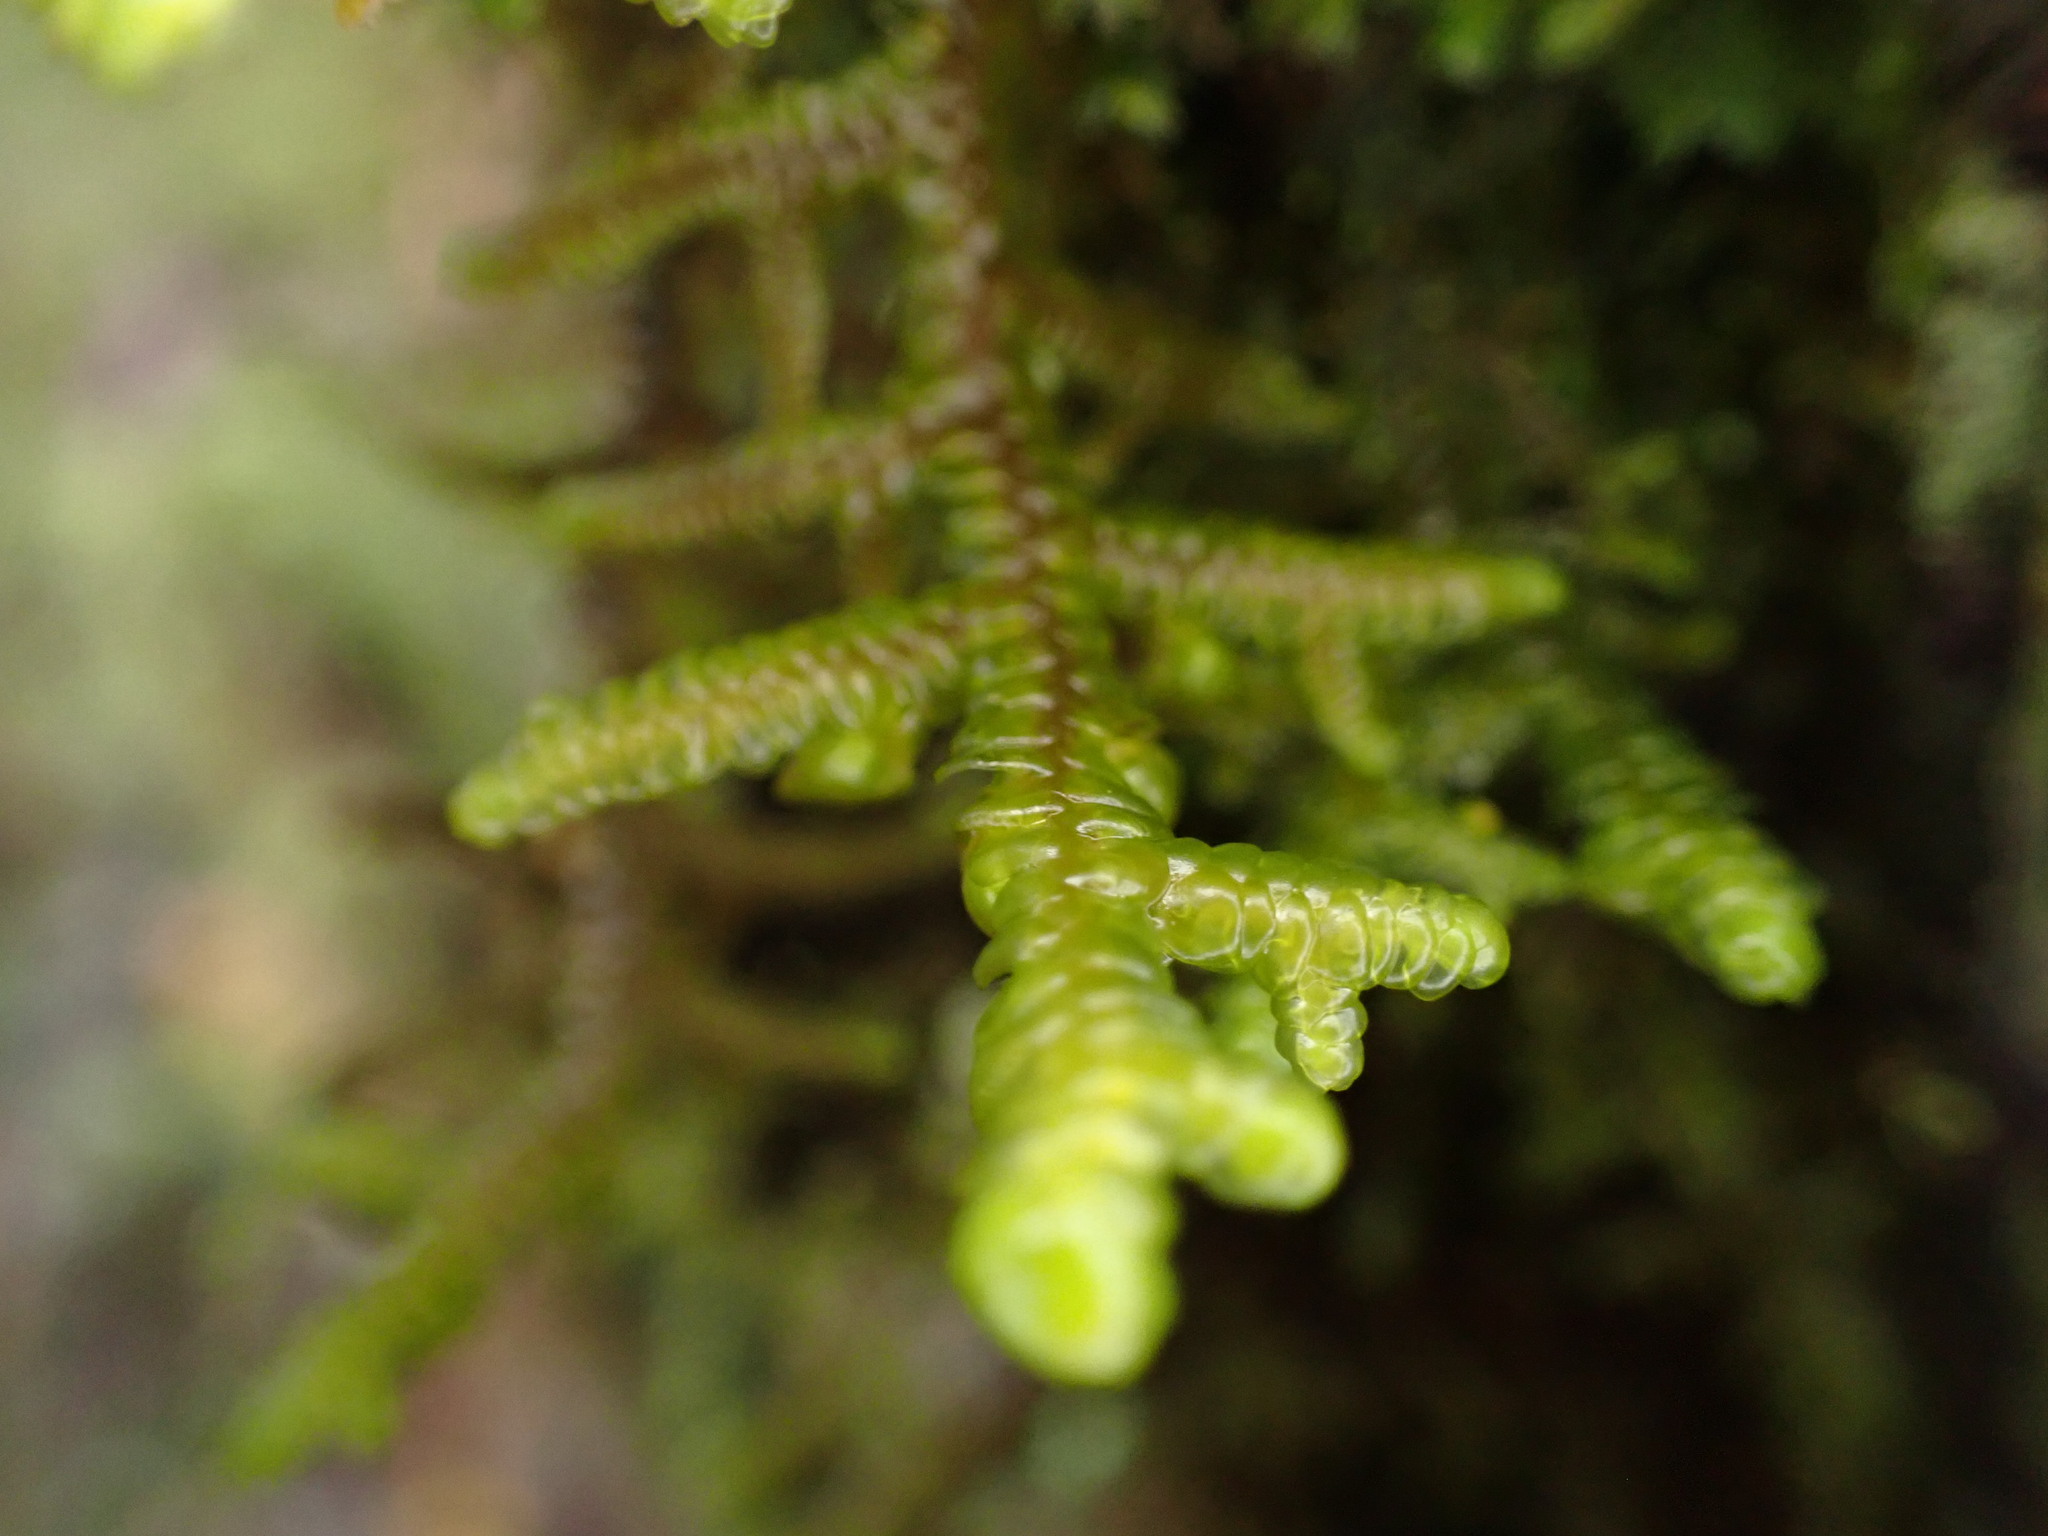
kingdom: Plantae
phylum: Marchantiophyta
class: Jungermanniopsida
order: Porellales
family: Porellaceae
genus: Porella
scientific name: Porella navicularis
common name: Tree ruffle liverwort
